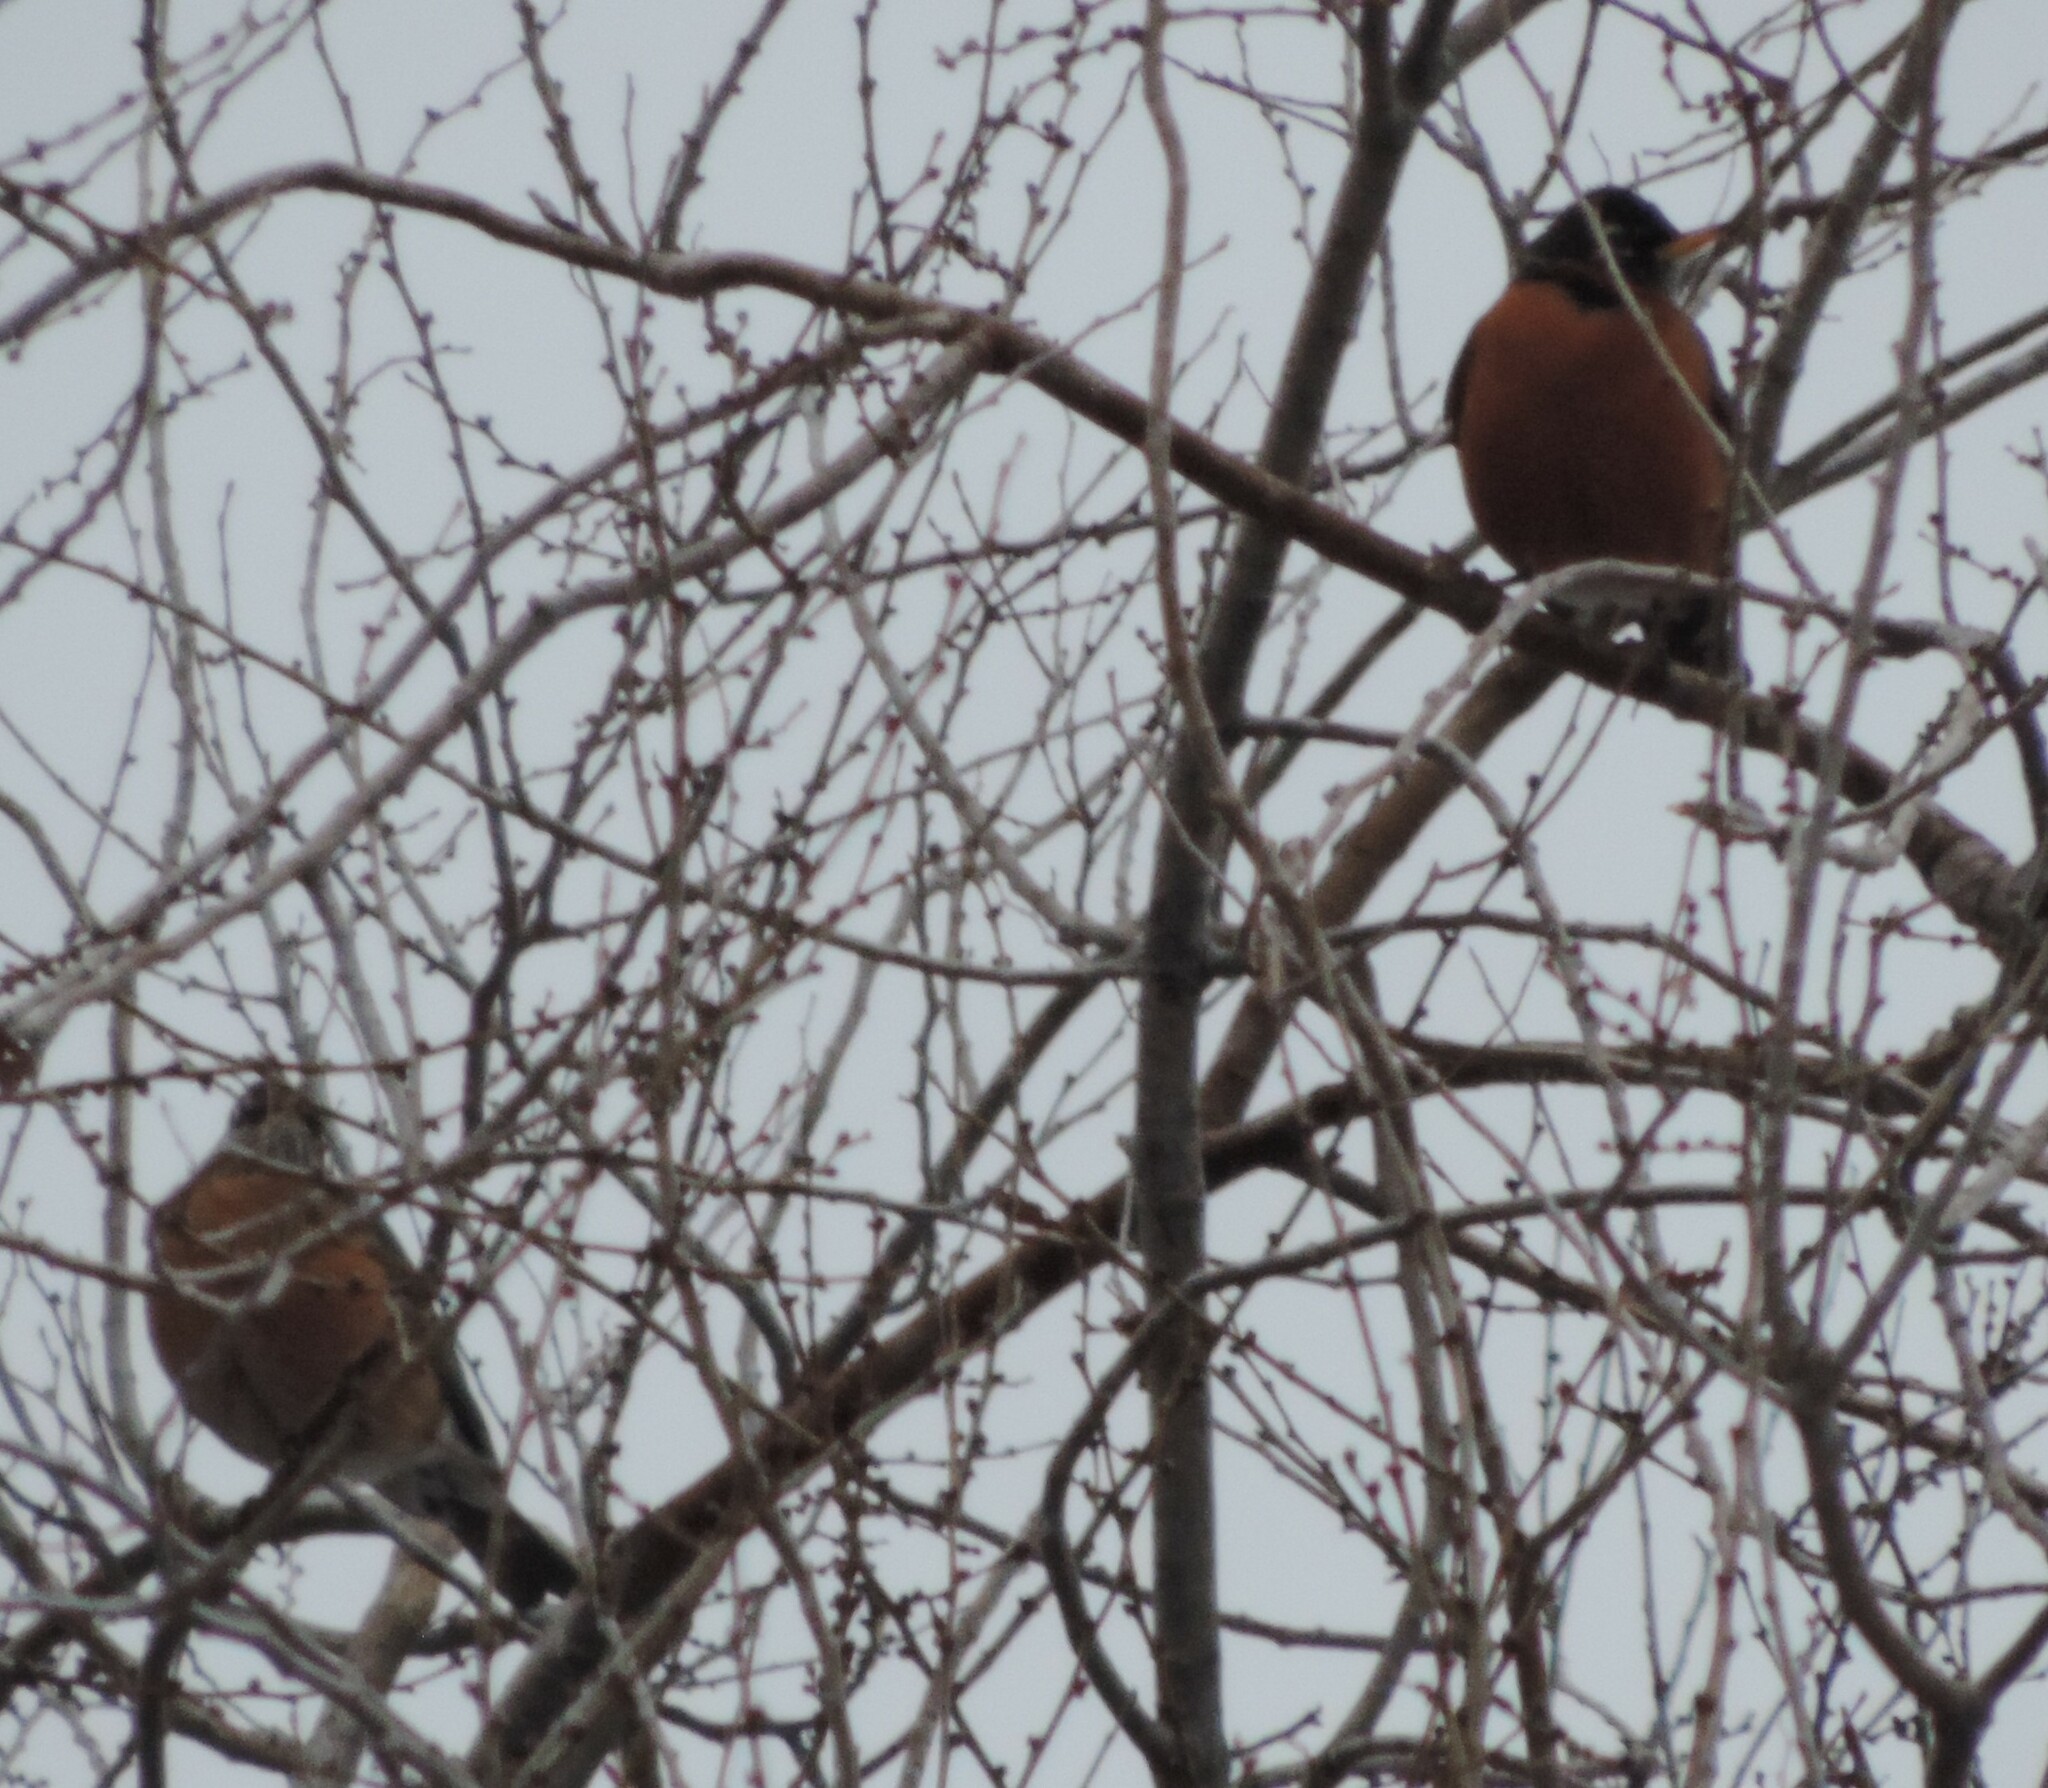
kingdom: Animalia
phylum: Chordata
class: Aves
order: Passeriformes
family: Turdidae
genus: Turdus
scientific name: Turdus migratorius
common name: American robin
